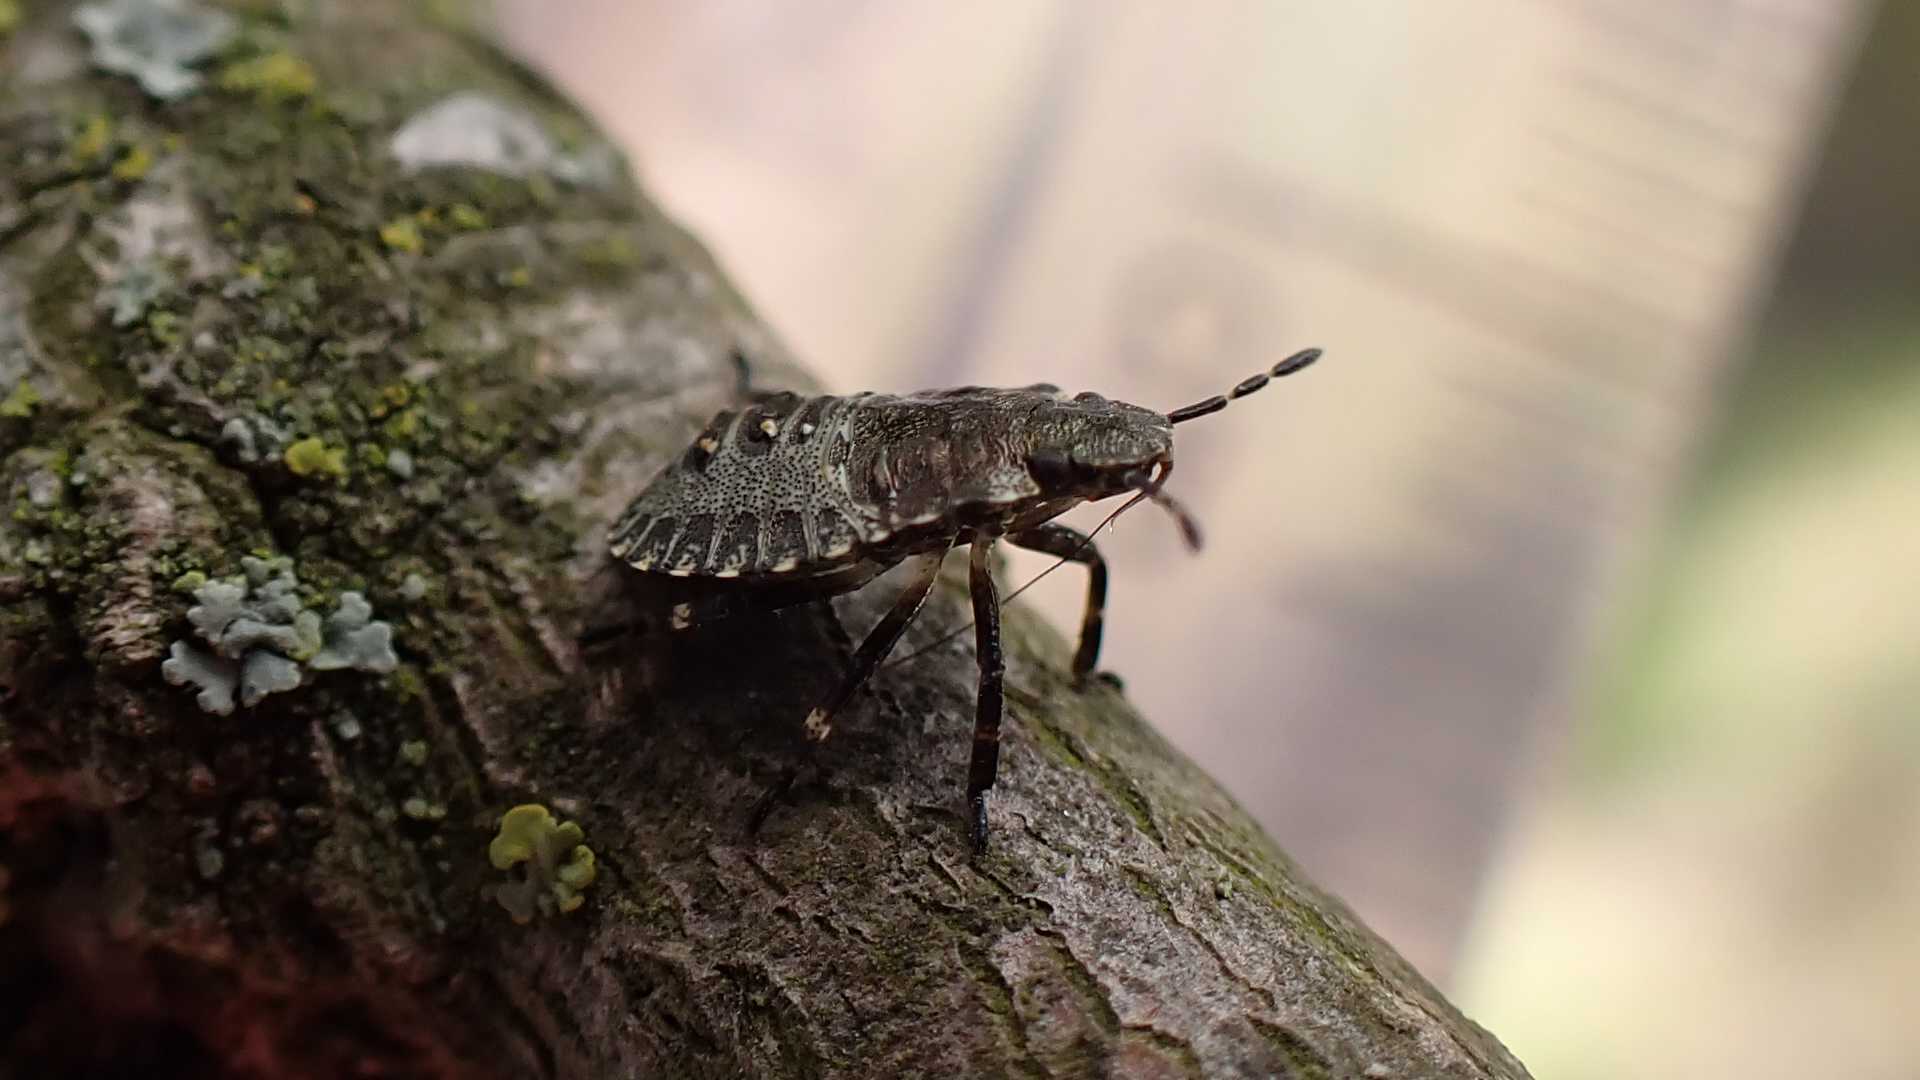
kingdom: Animalia
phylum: Arthropoda
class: Insecta
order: Hemiptera
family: Pentatomidae
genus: Pentatoma
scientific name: Pentatoma rufipes
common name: Forest bug
